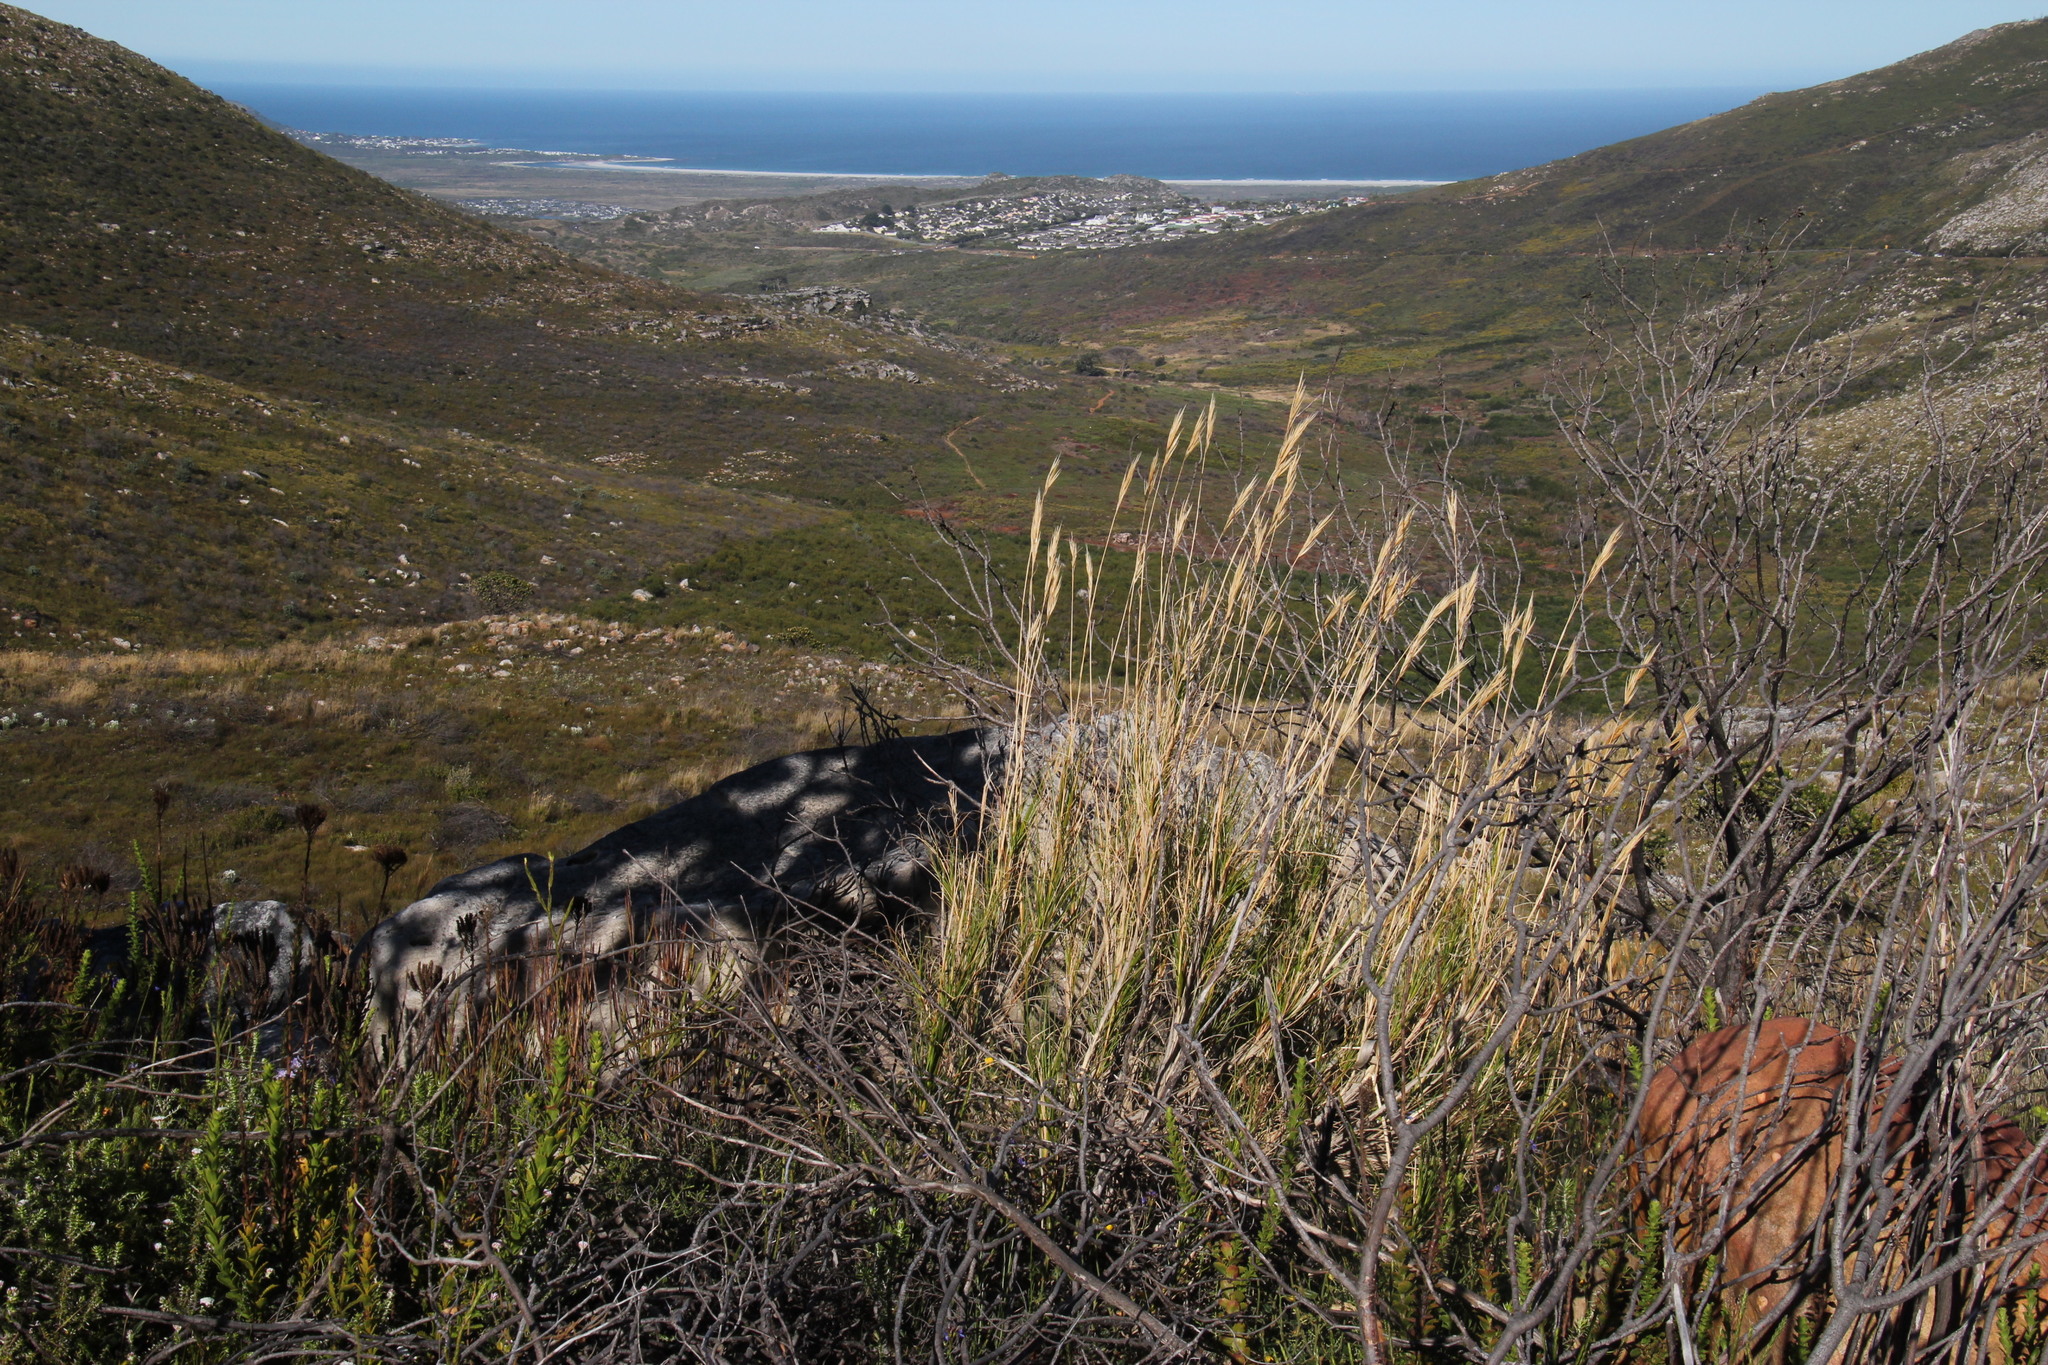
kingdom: Plantae
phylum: Tracheophyta
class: Liliopsida
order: Poales
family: Poaceae
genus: Pseudopentameris
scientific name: Pseudopentameris macrantha
